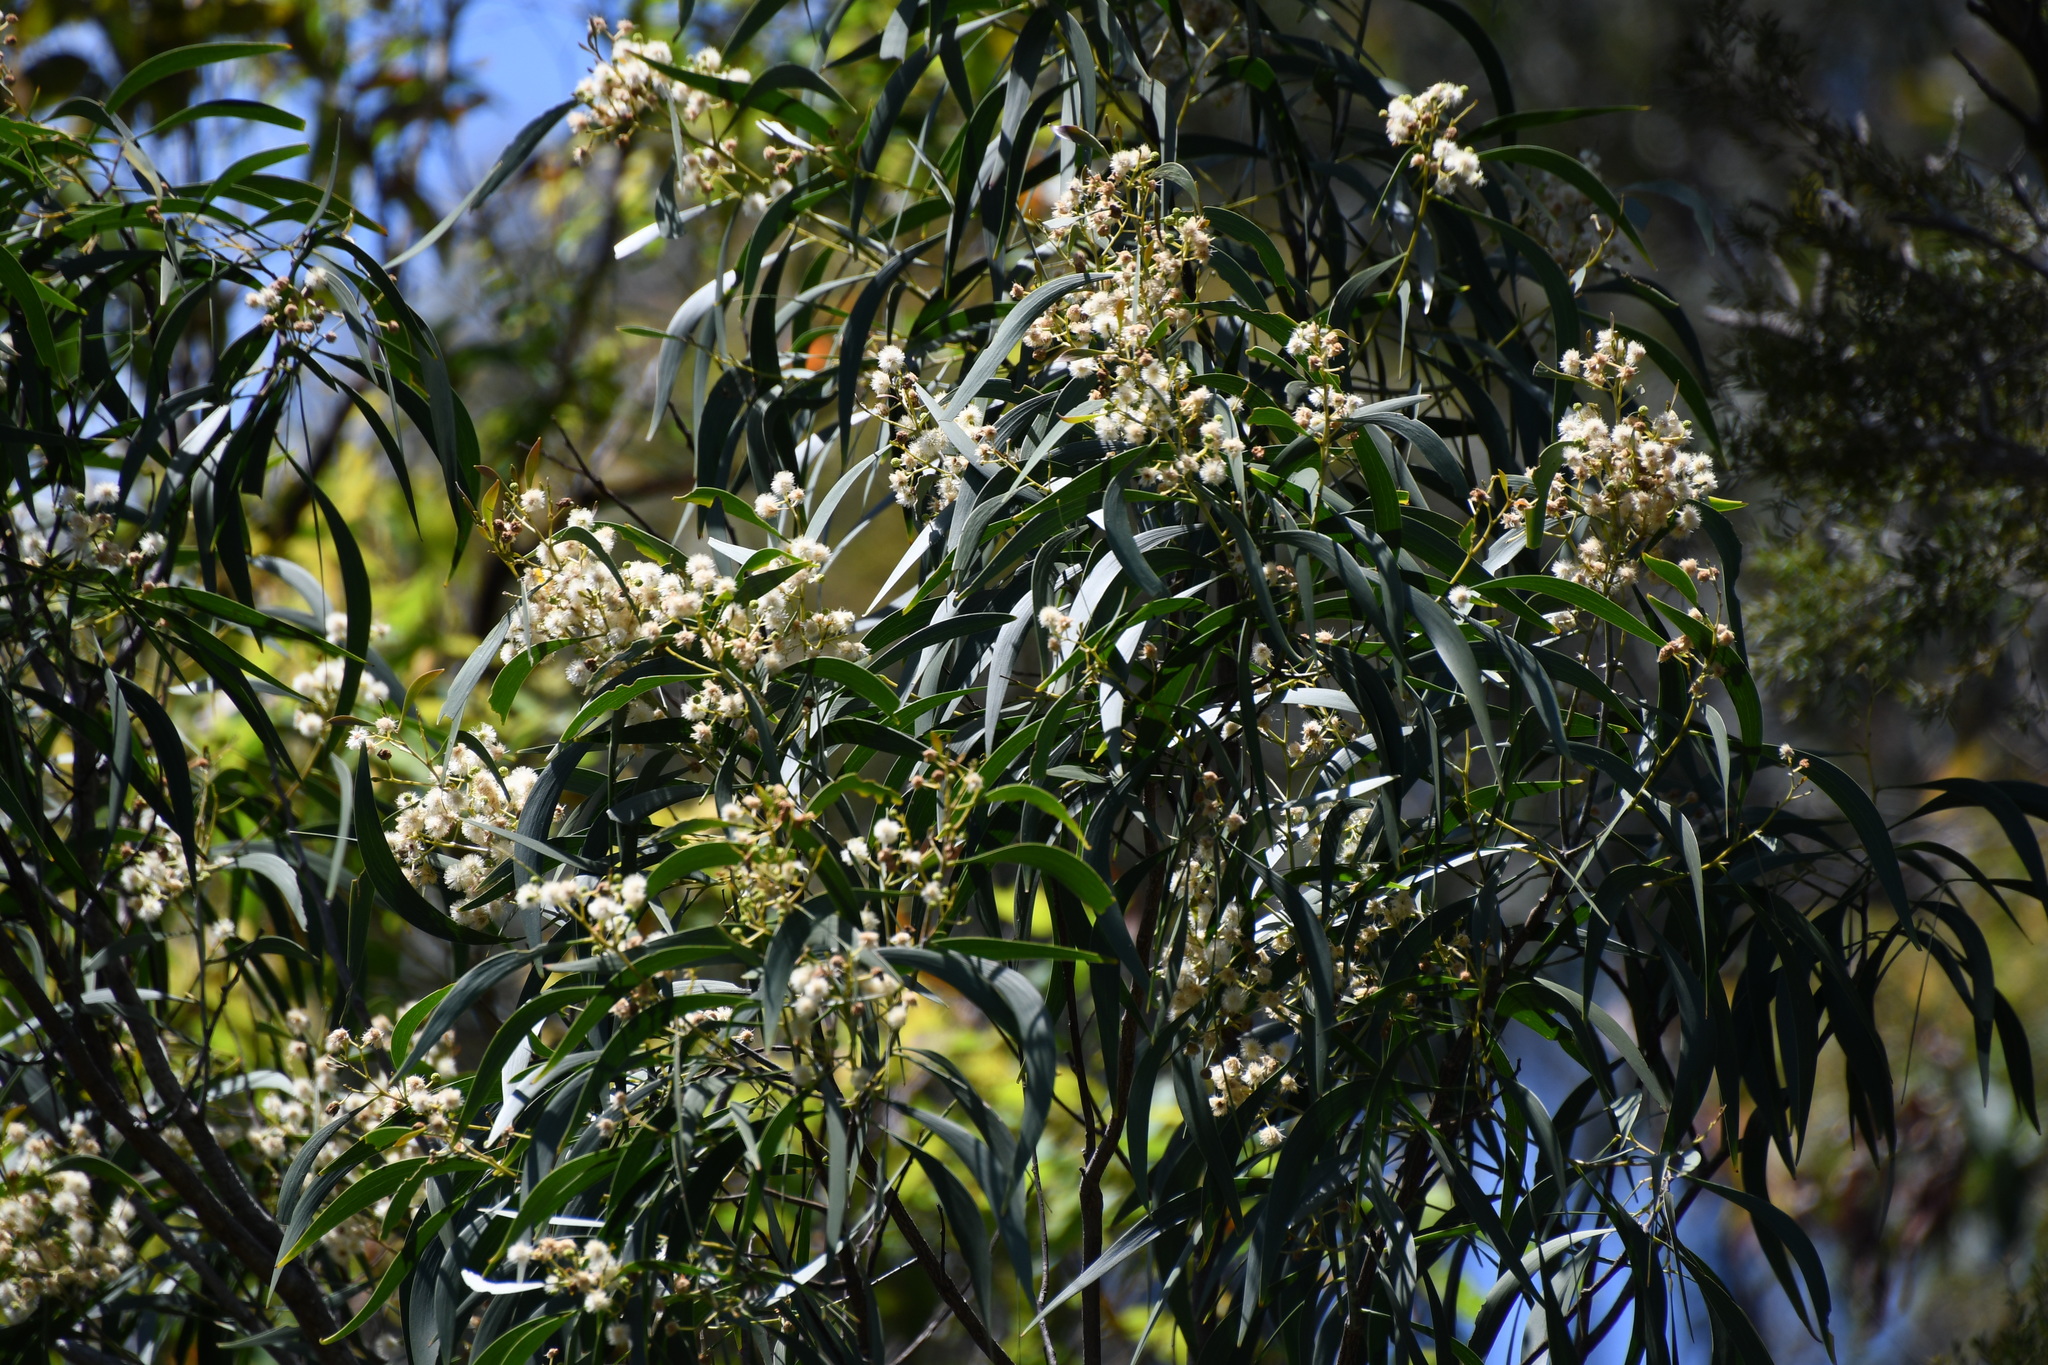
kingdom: Plantae
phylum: Tracheophyta
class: Magnoliopsida
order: Fabales
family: Fabaceae
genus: Acacia
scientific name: Acacia implexa
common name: Black wattle
